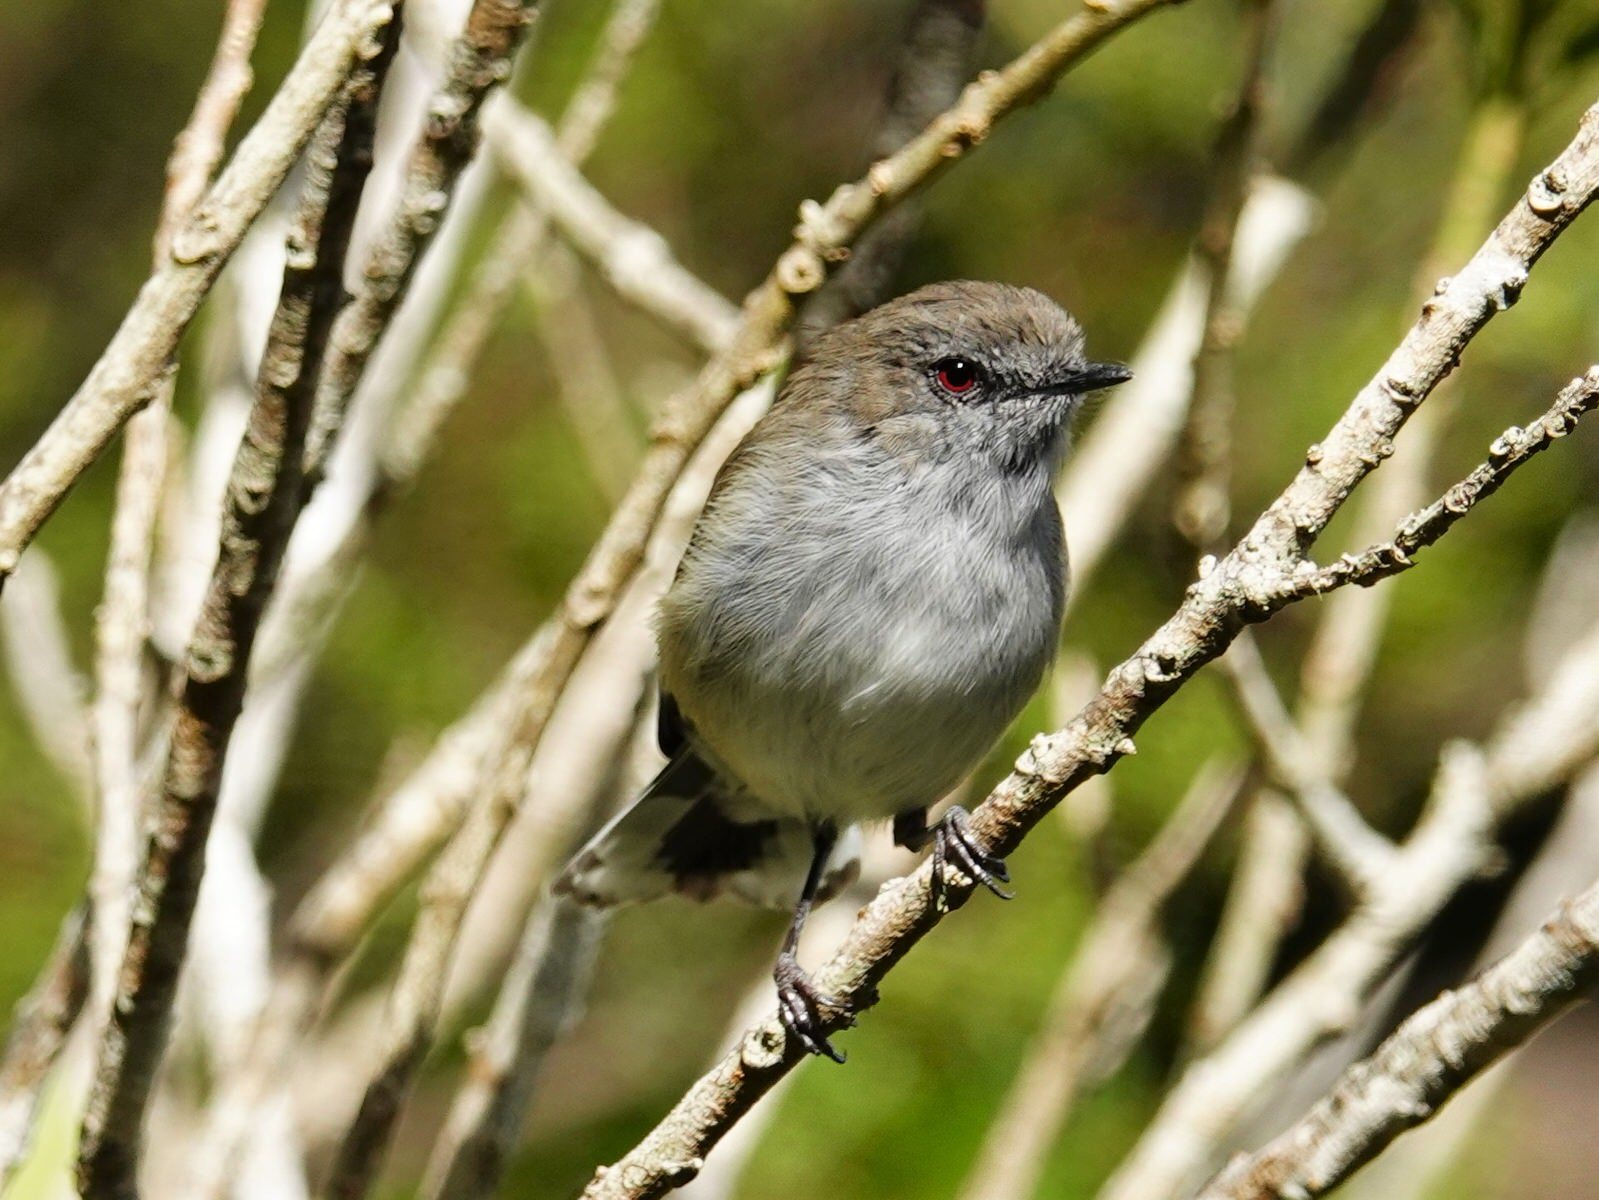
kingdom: Animalia
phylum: Chordata
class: Aves
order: Passeriformes
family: Acanthizidae
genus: Gerygone
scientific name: Gerygone igata
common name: Grey gerygone
